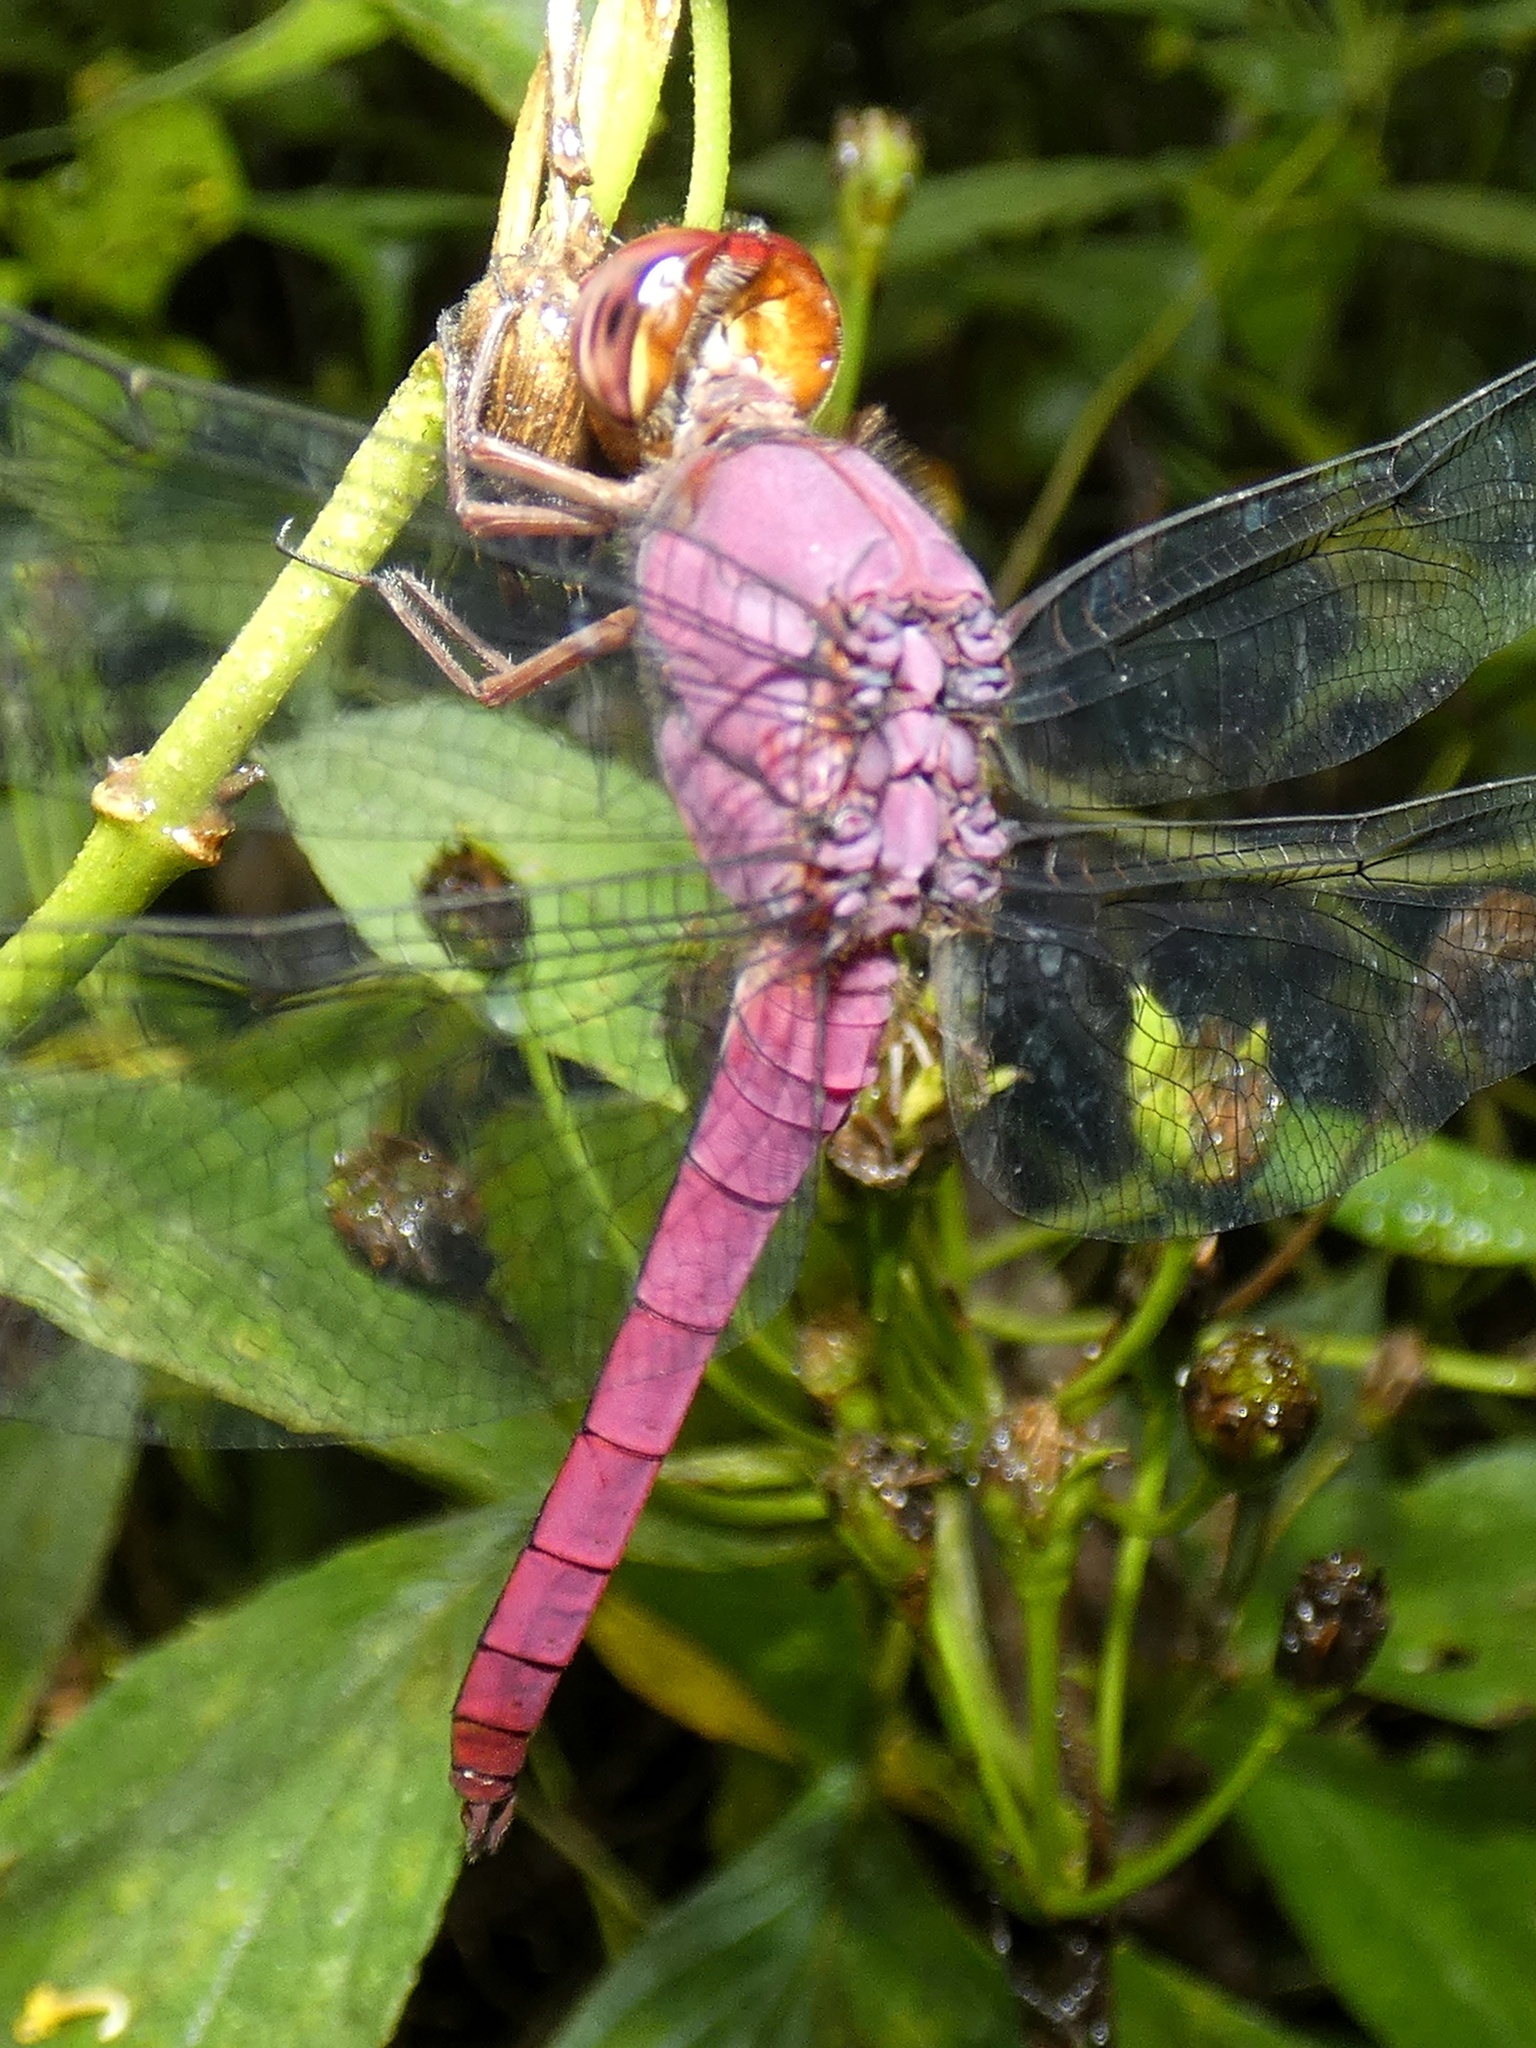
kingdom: Animalia
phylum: Arthropoda
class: Insecta
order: Odonata
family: Libellulidae
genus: Orthemis
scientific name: Orthemis discolor
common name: Carmine skimmer
